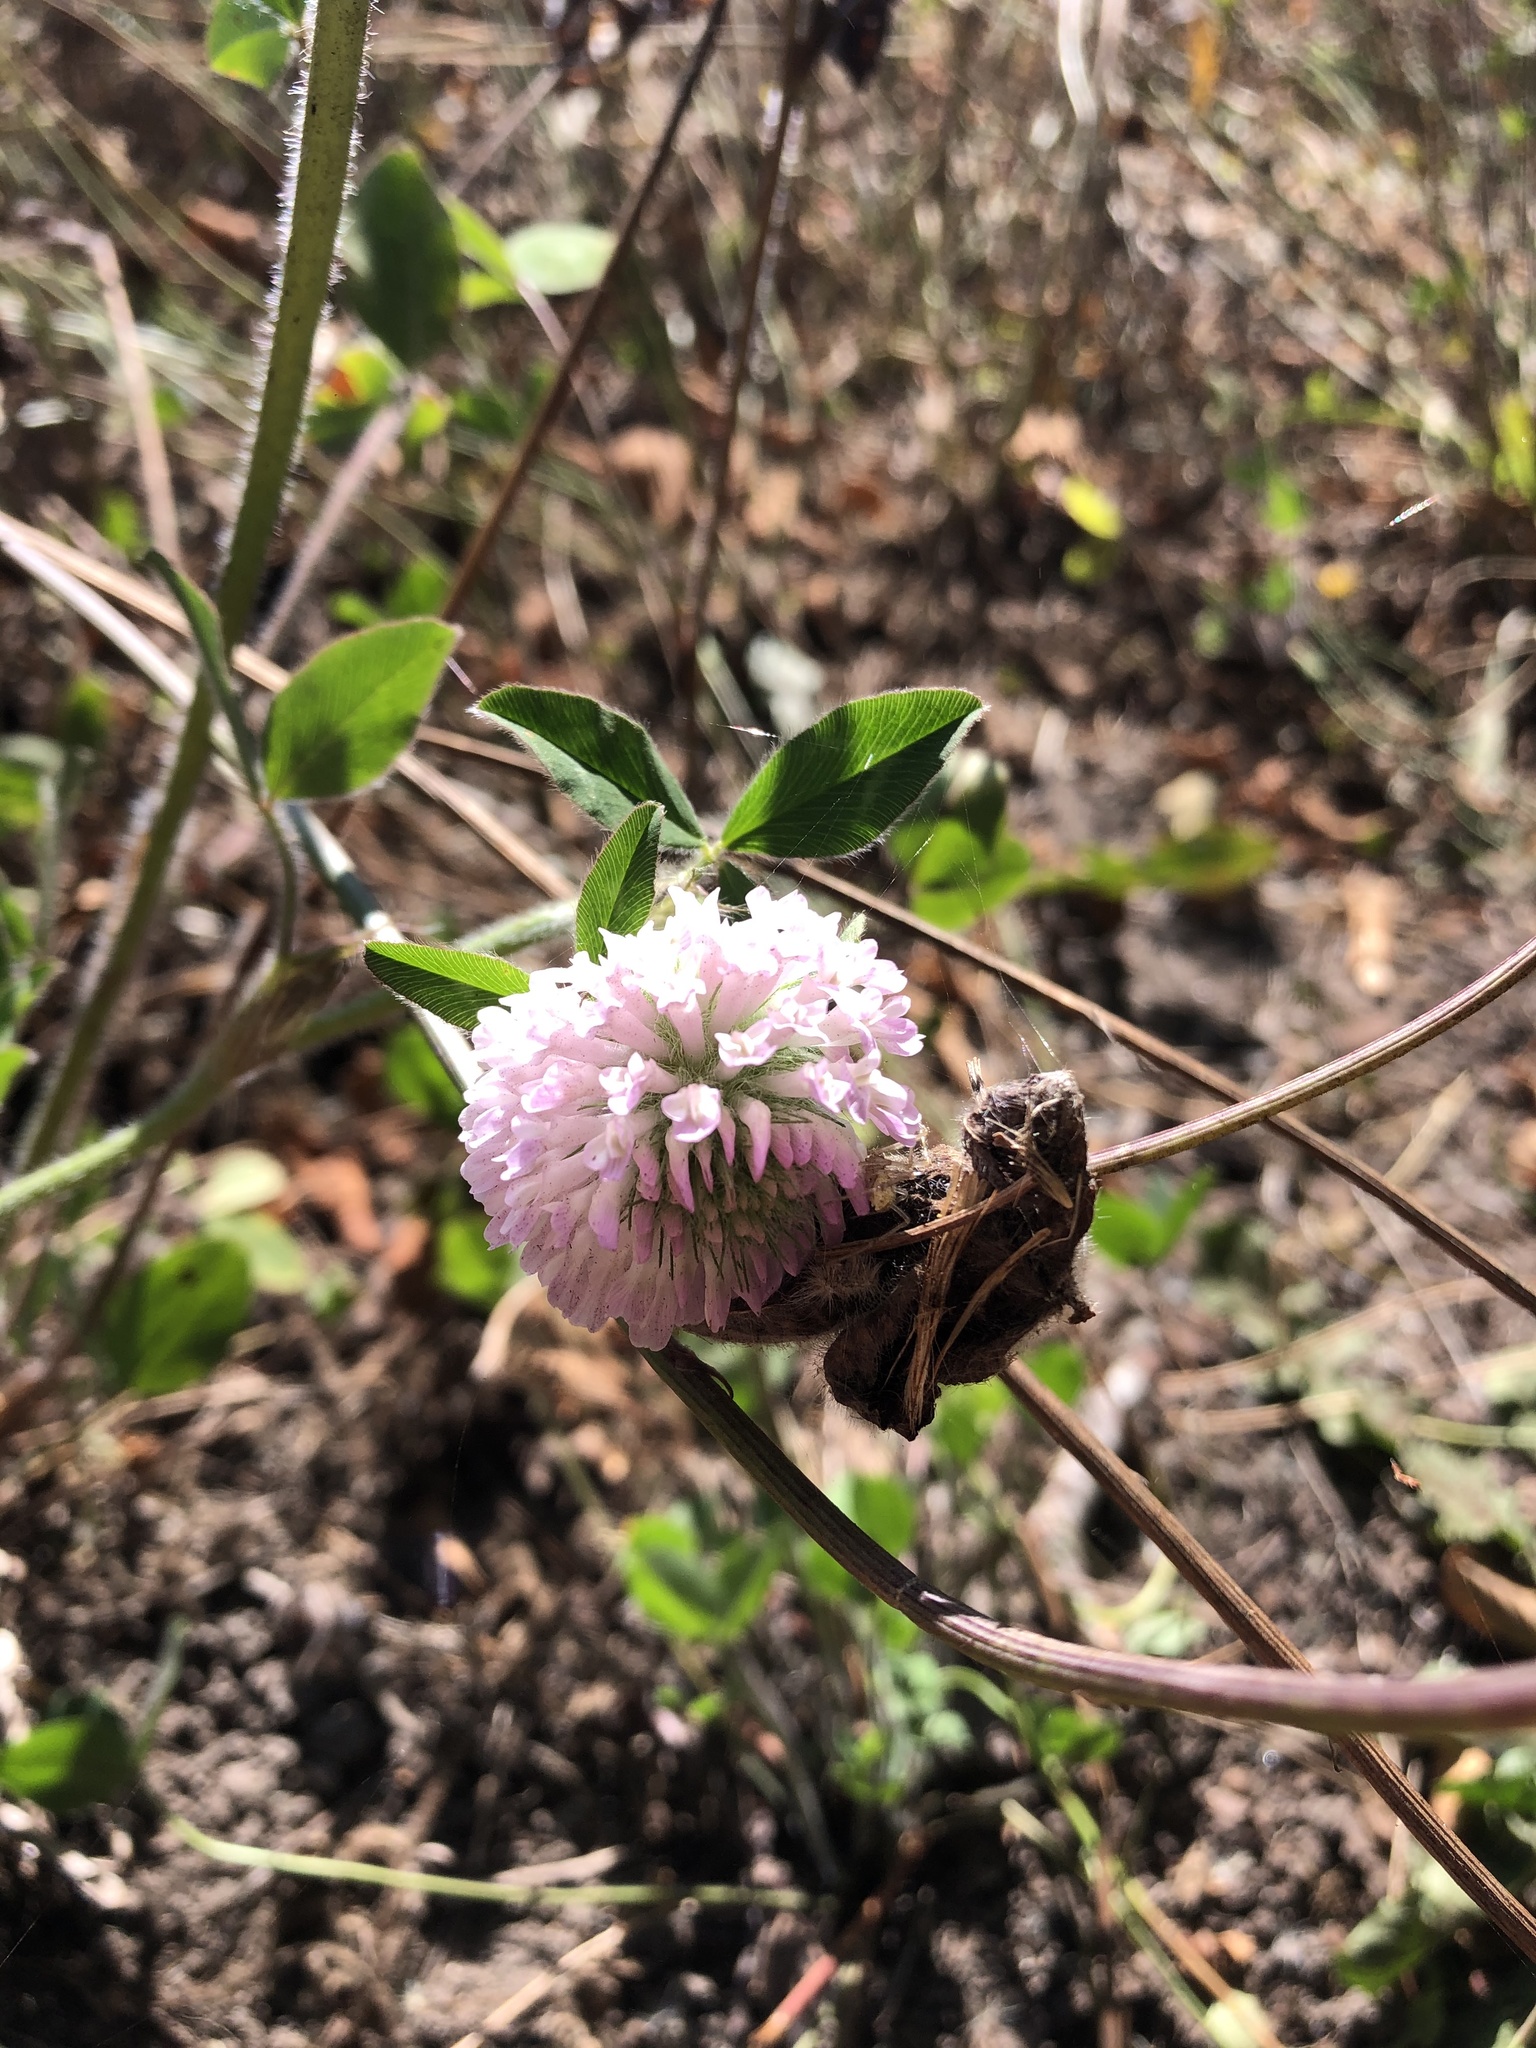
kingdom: Plantae
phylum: Tracheophyta
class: Magnoliopsida
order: Fabales
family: Fabaceae
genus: Trifolium
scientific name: Trifolium pratense
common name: Red clover
